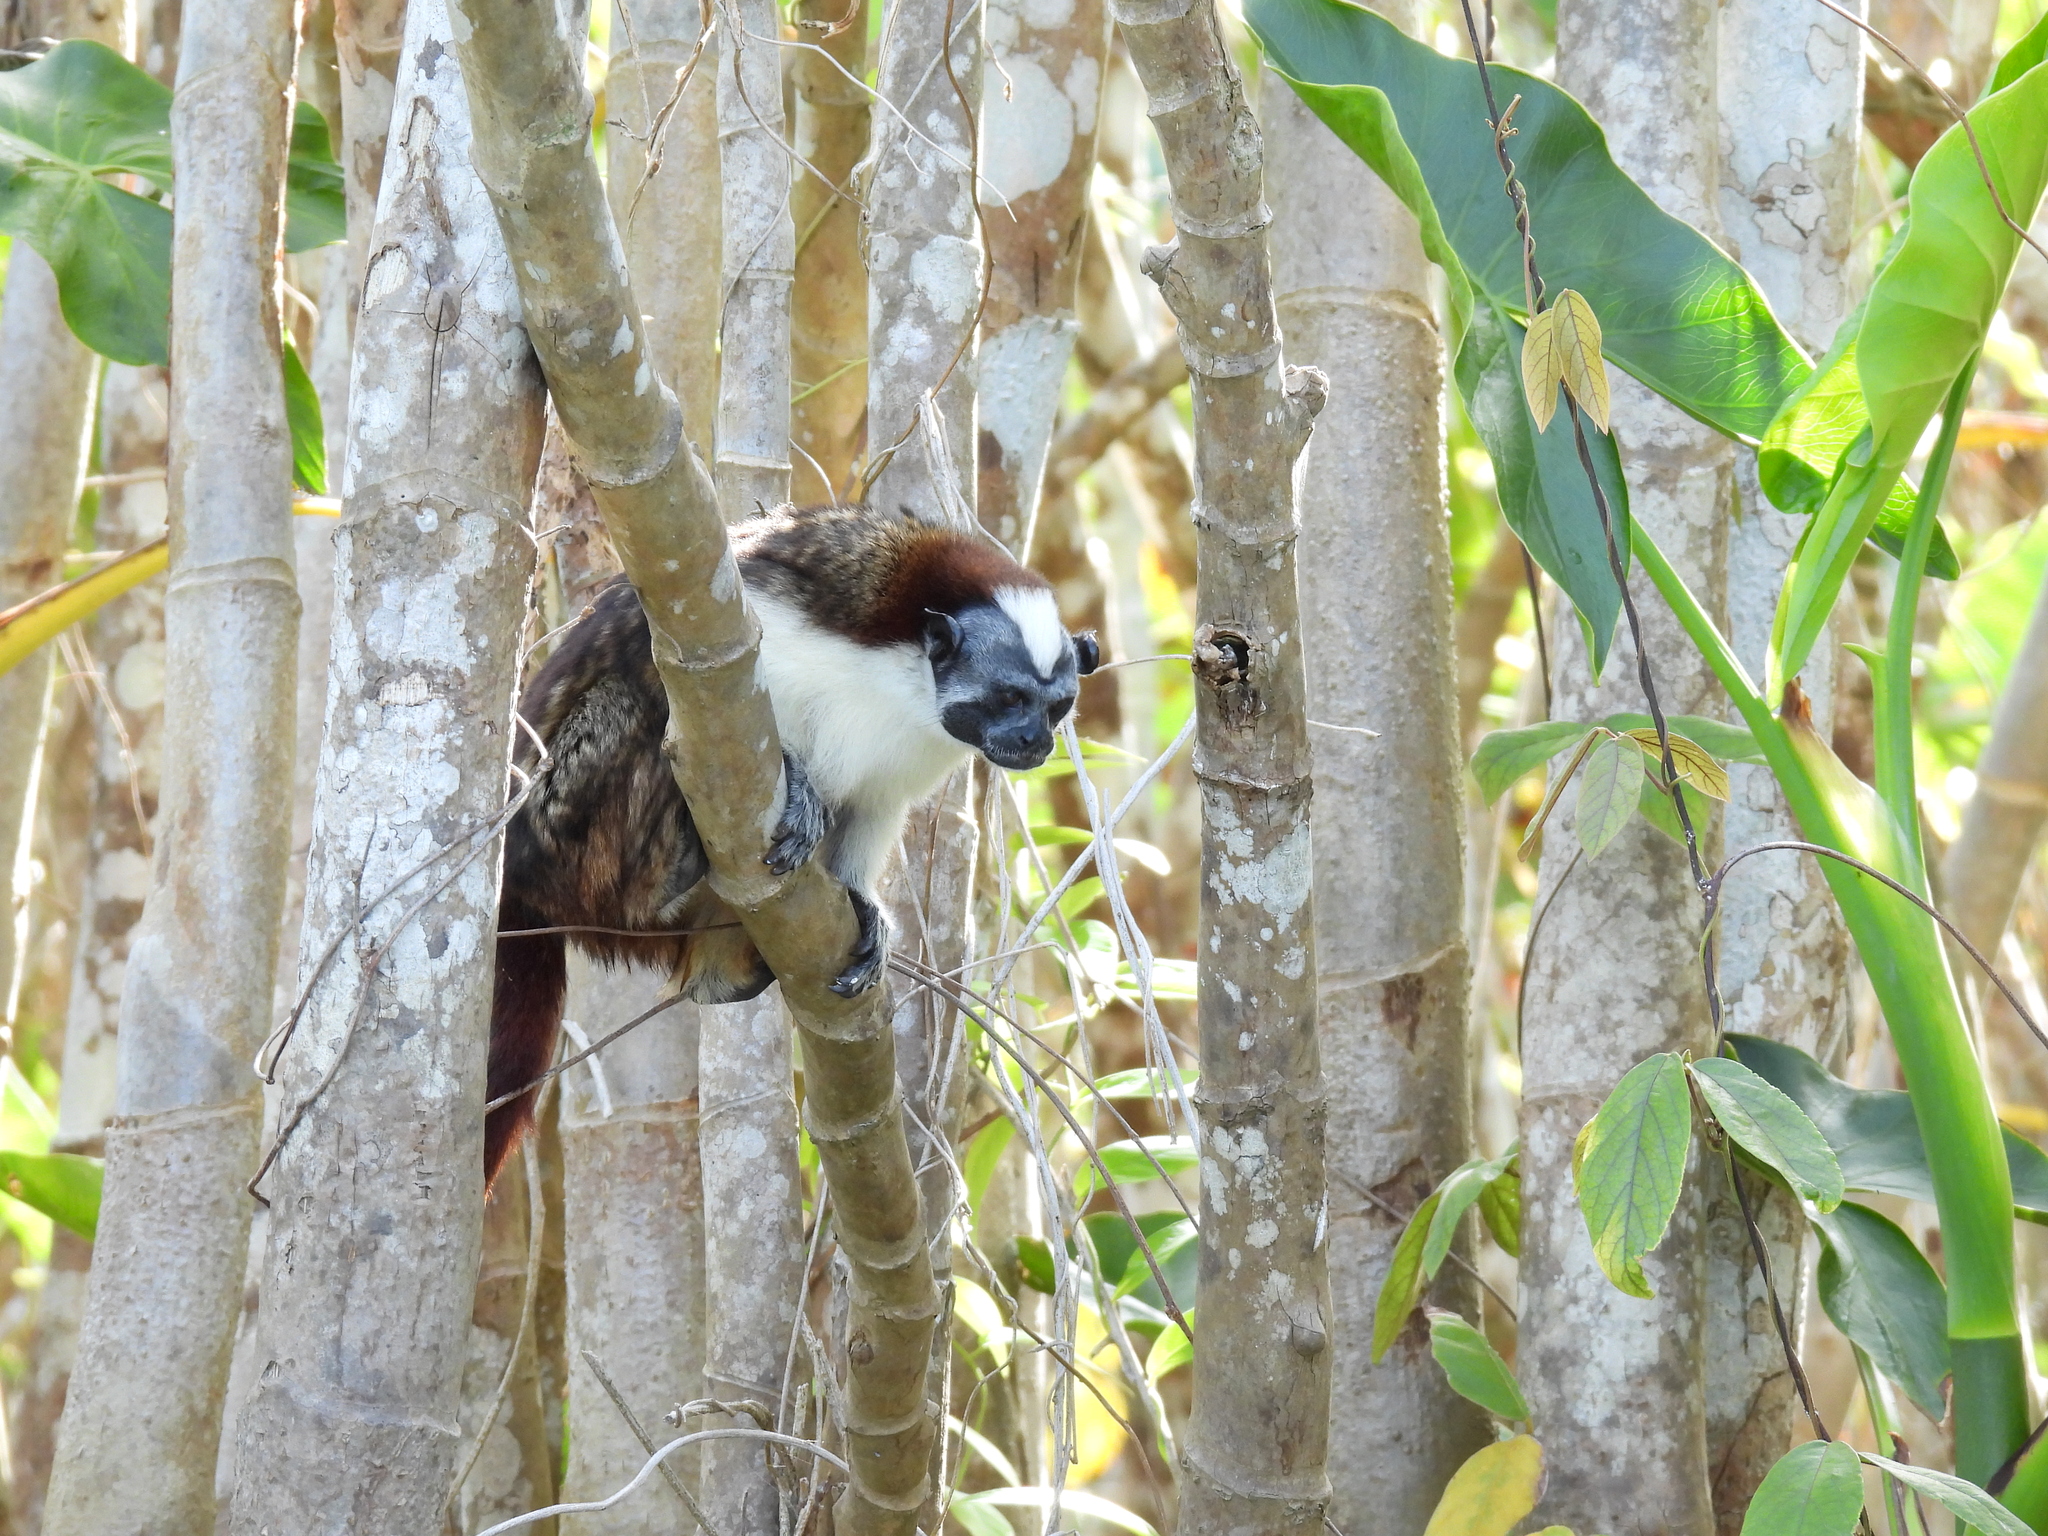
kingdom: Animalia
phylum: Chordata
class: Mammalia
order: Primates
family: Callitrichidae
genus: Saguinus
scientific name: Saguinus geoffroyi
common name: Geoffroy s tamarin
